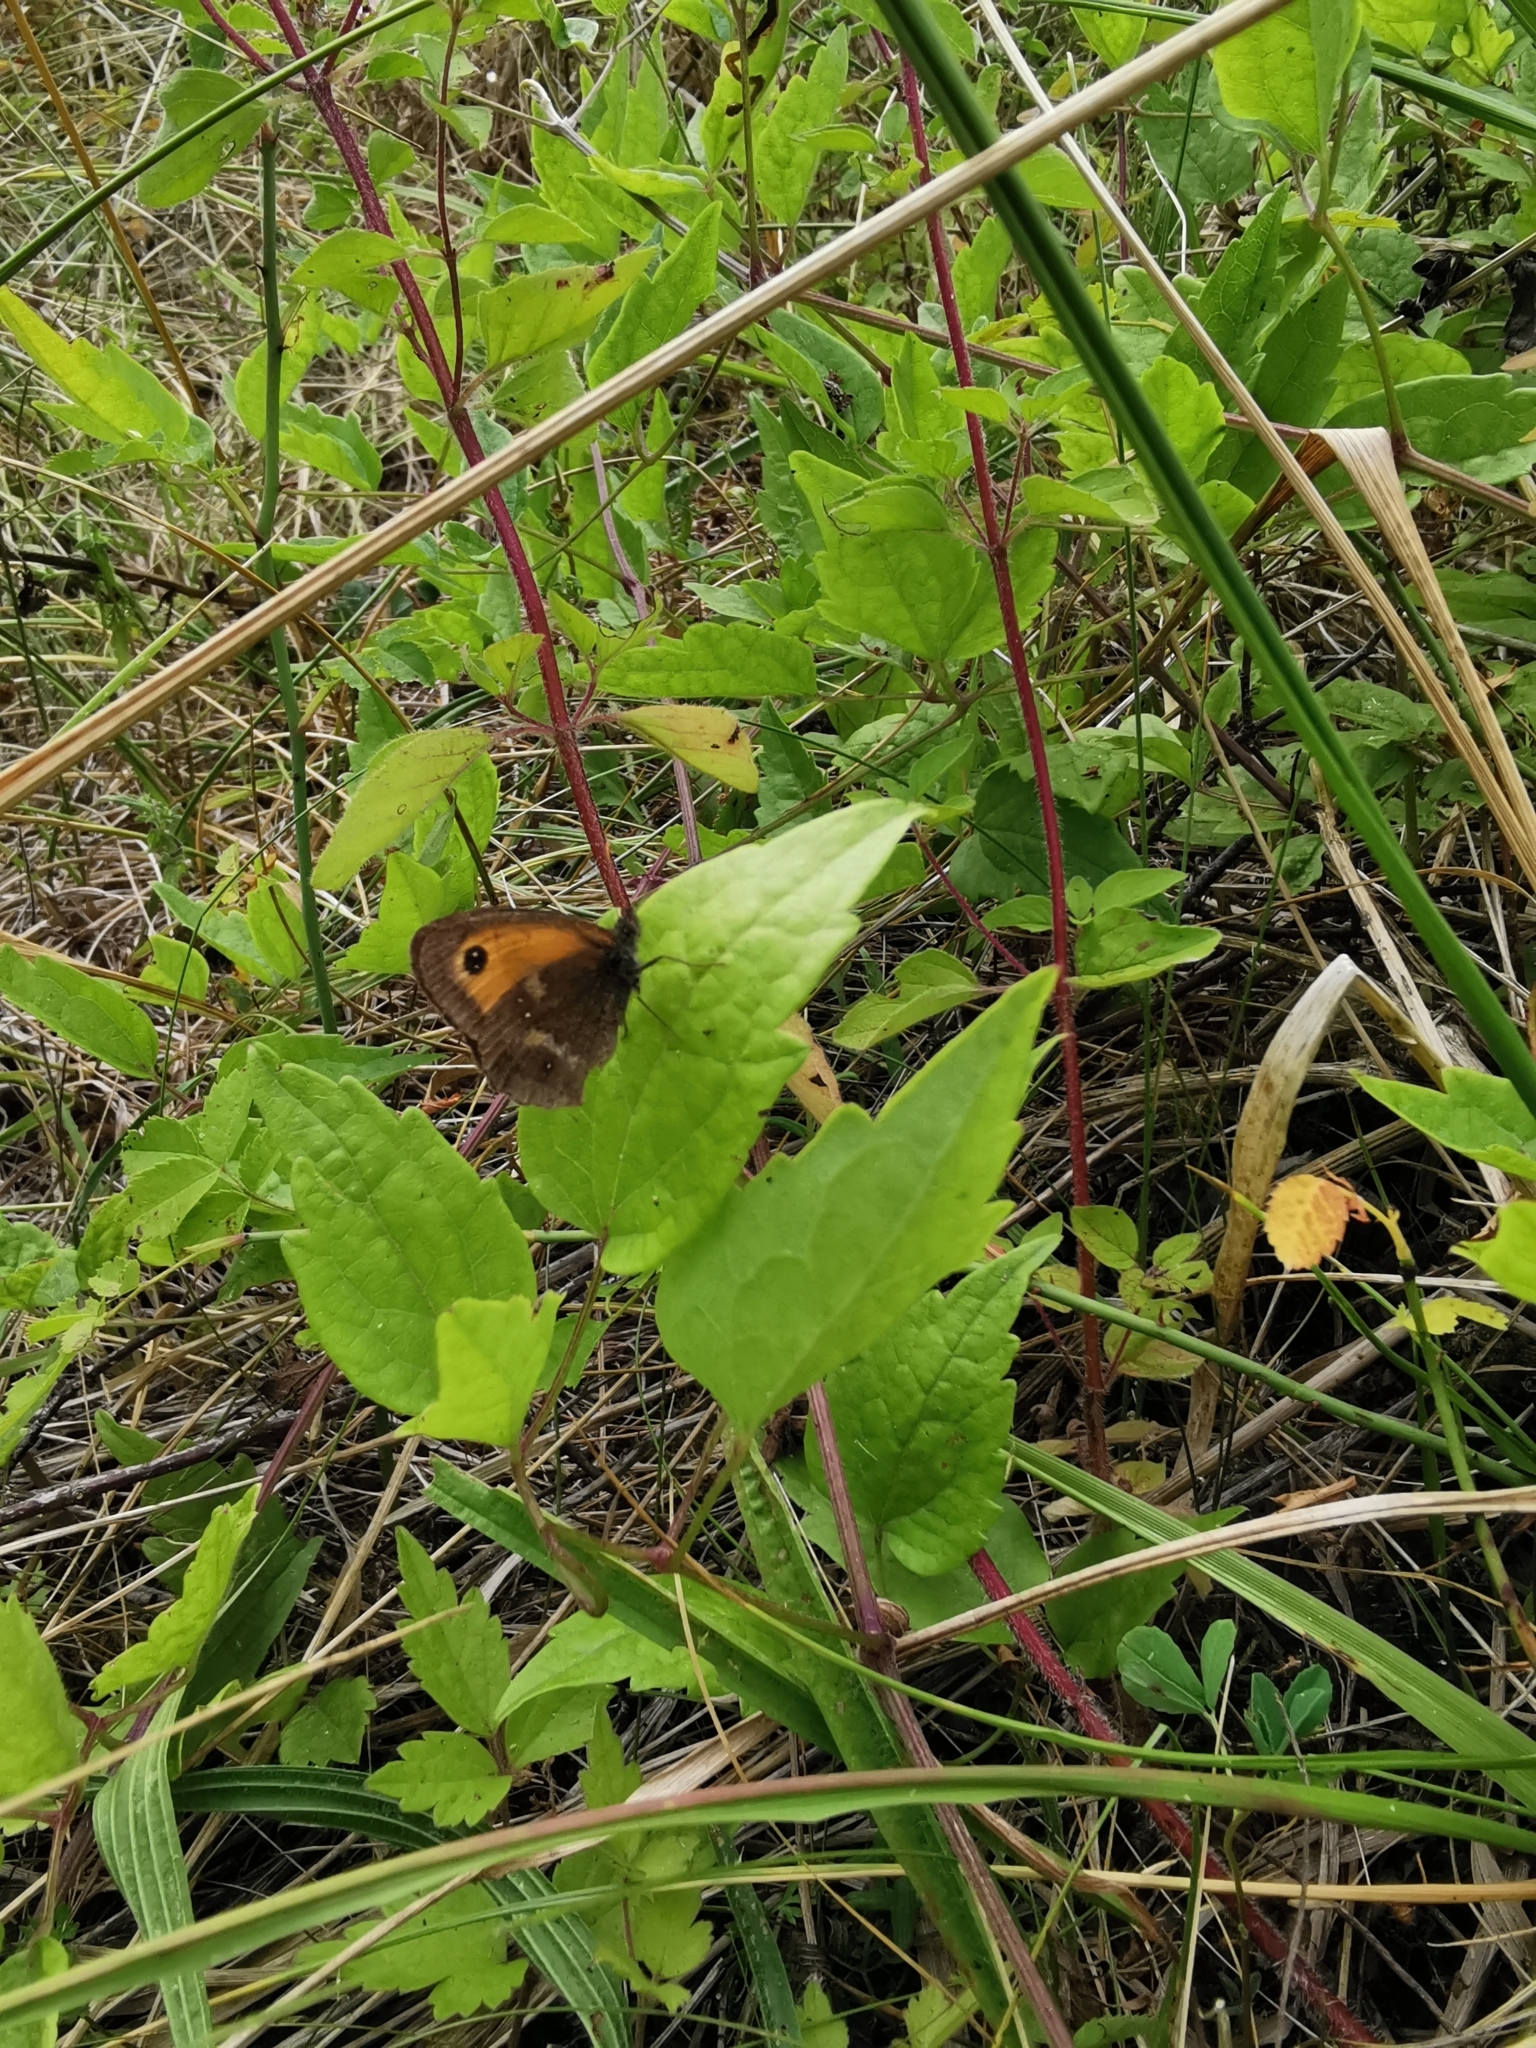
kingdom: Animalia
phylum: Arthropoda
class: Insecta
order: Lepidoptera
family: Nymphalidae
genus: Pyronia
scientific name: Pyronia tithonus
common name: Gatekeeper
